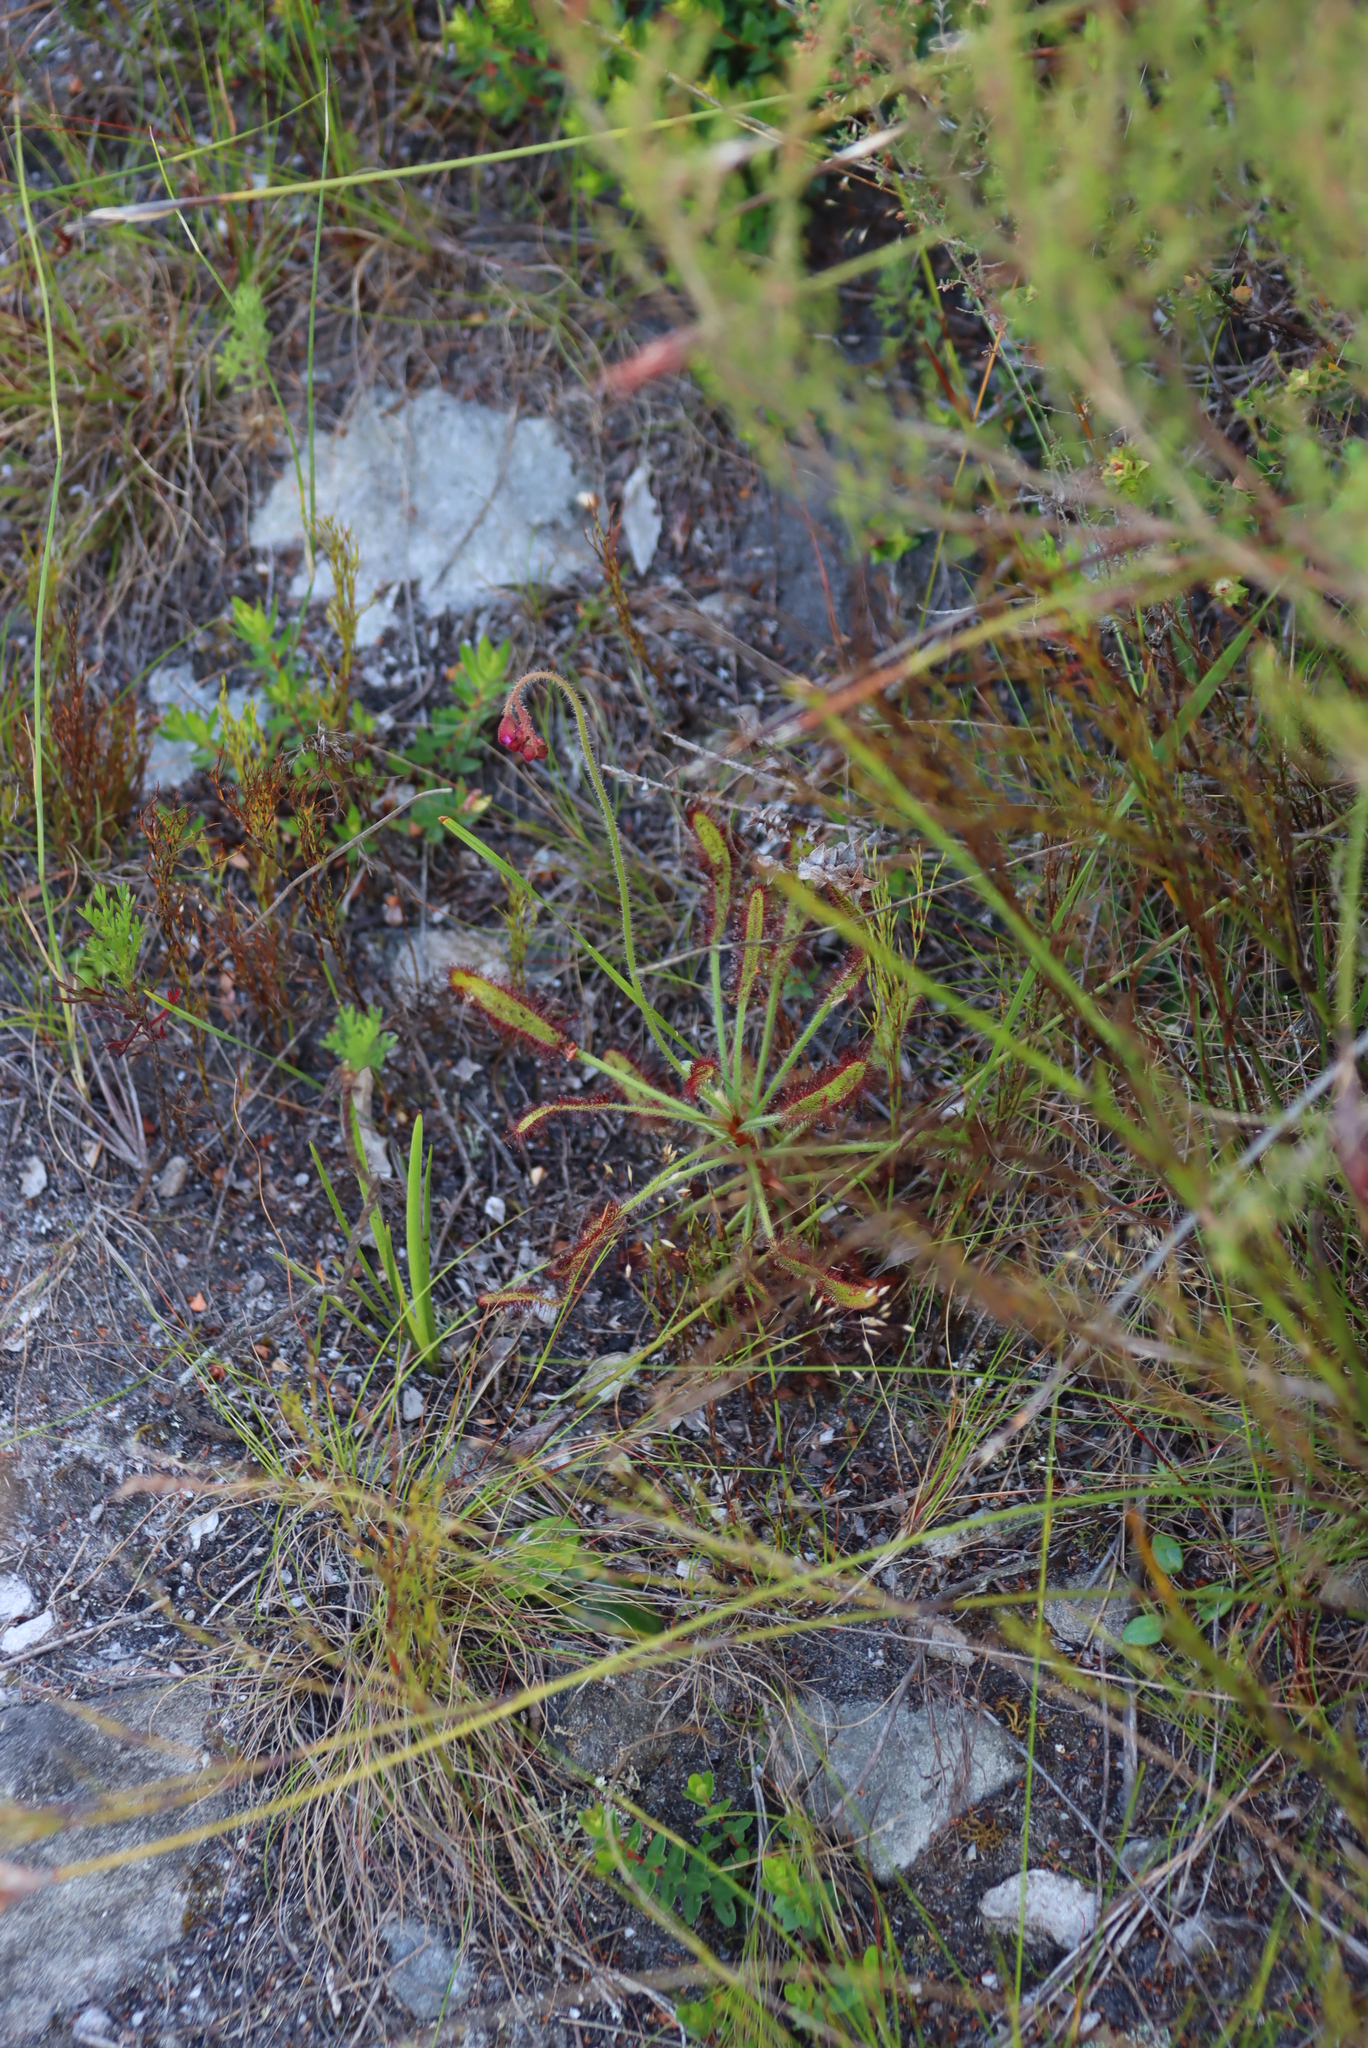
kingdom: Plantae
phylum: Tracheophyta
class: Magnoliopsida
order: Caryophyllales
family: Droseraceae
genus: Drosera
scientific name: Drosera ramentacea
